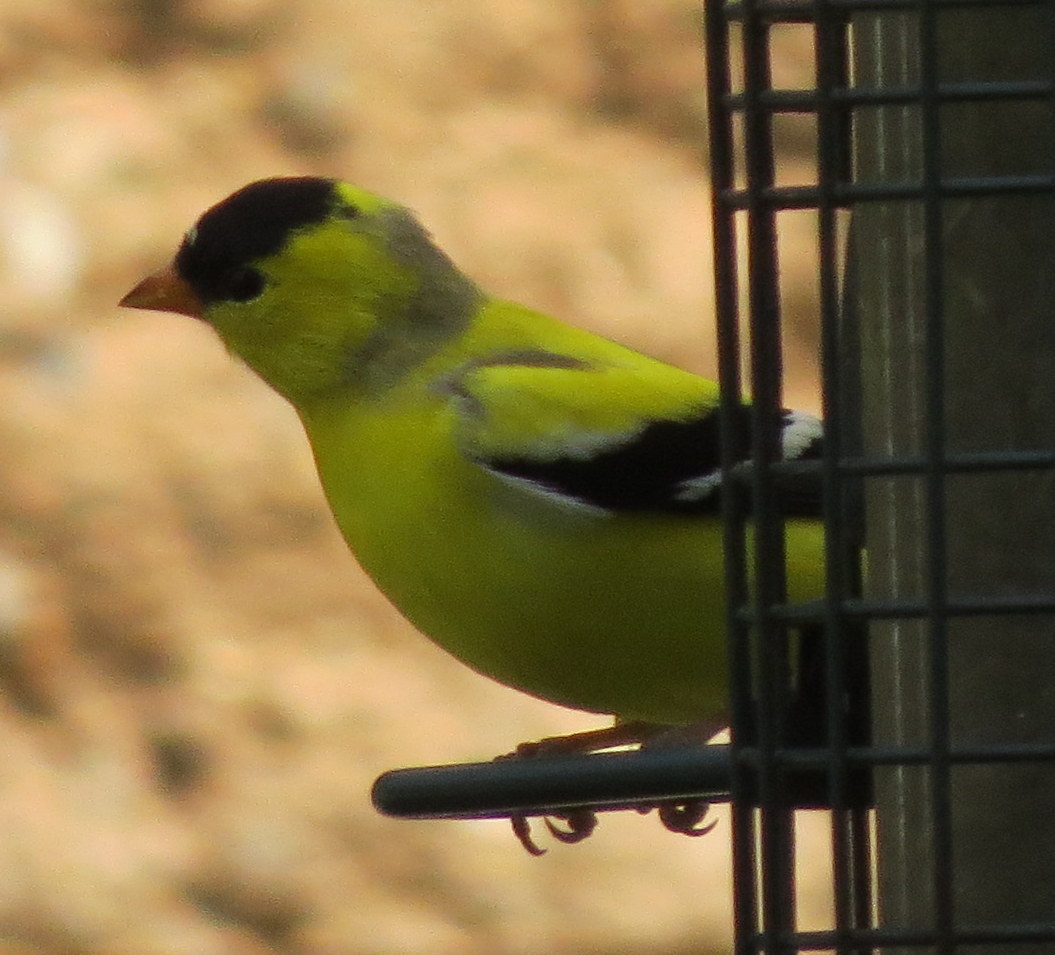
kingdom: Animalia
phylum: Chordata
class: Aves
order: Passeriformes
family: Fringillidae
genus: Spinus
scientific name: Spinus tristis
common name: American goldfinch
